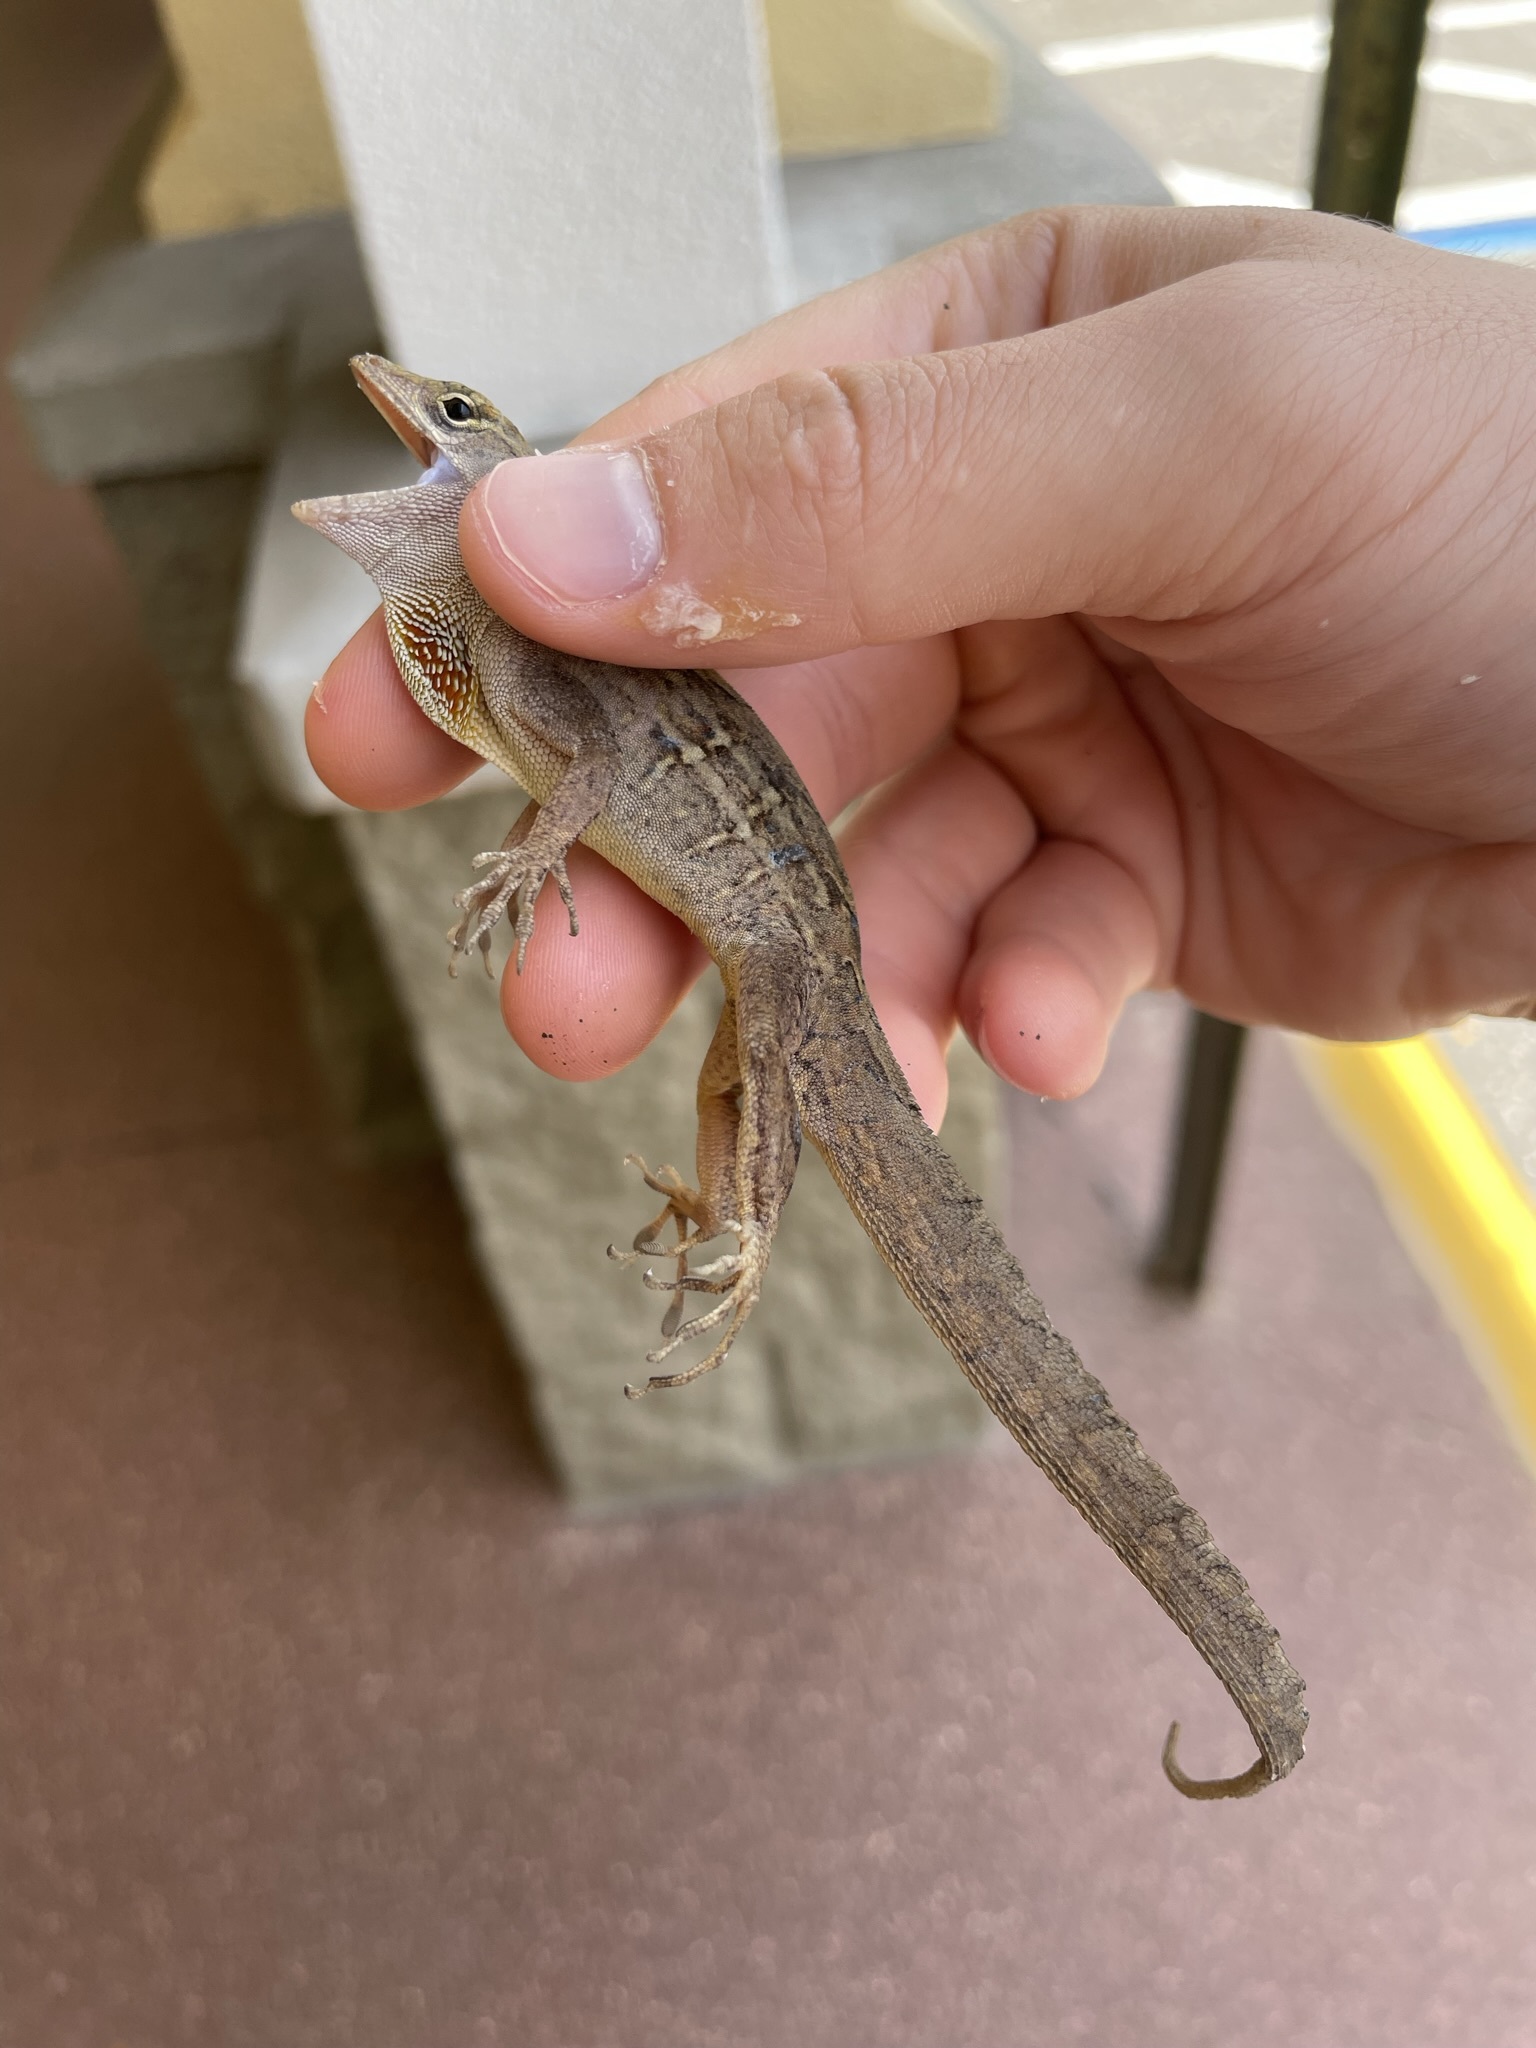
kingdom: Animalia
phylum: Chordata
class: Squamata
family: Dactyloidae
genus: Anolis
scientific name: Anolis sagrei
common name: Brown anole
